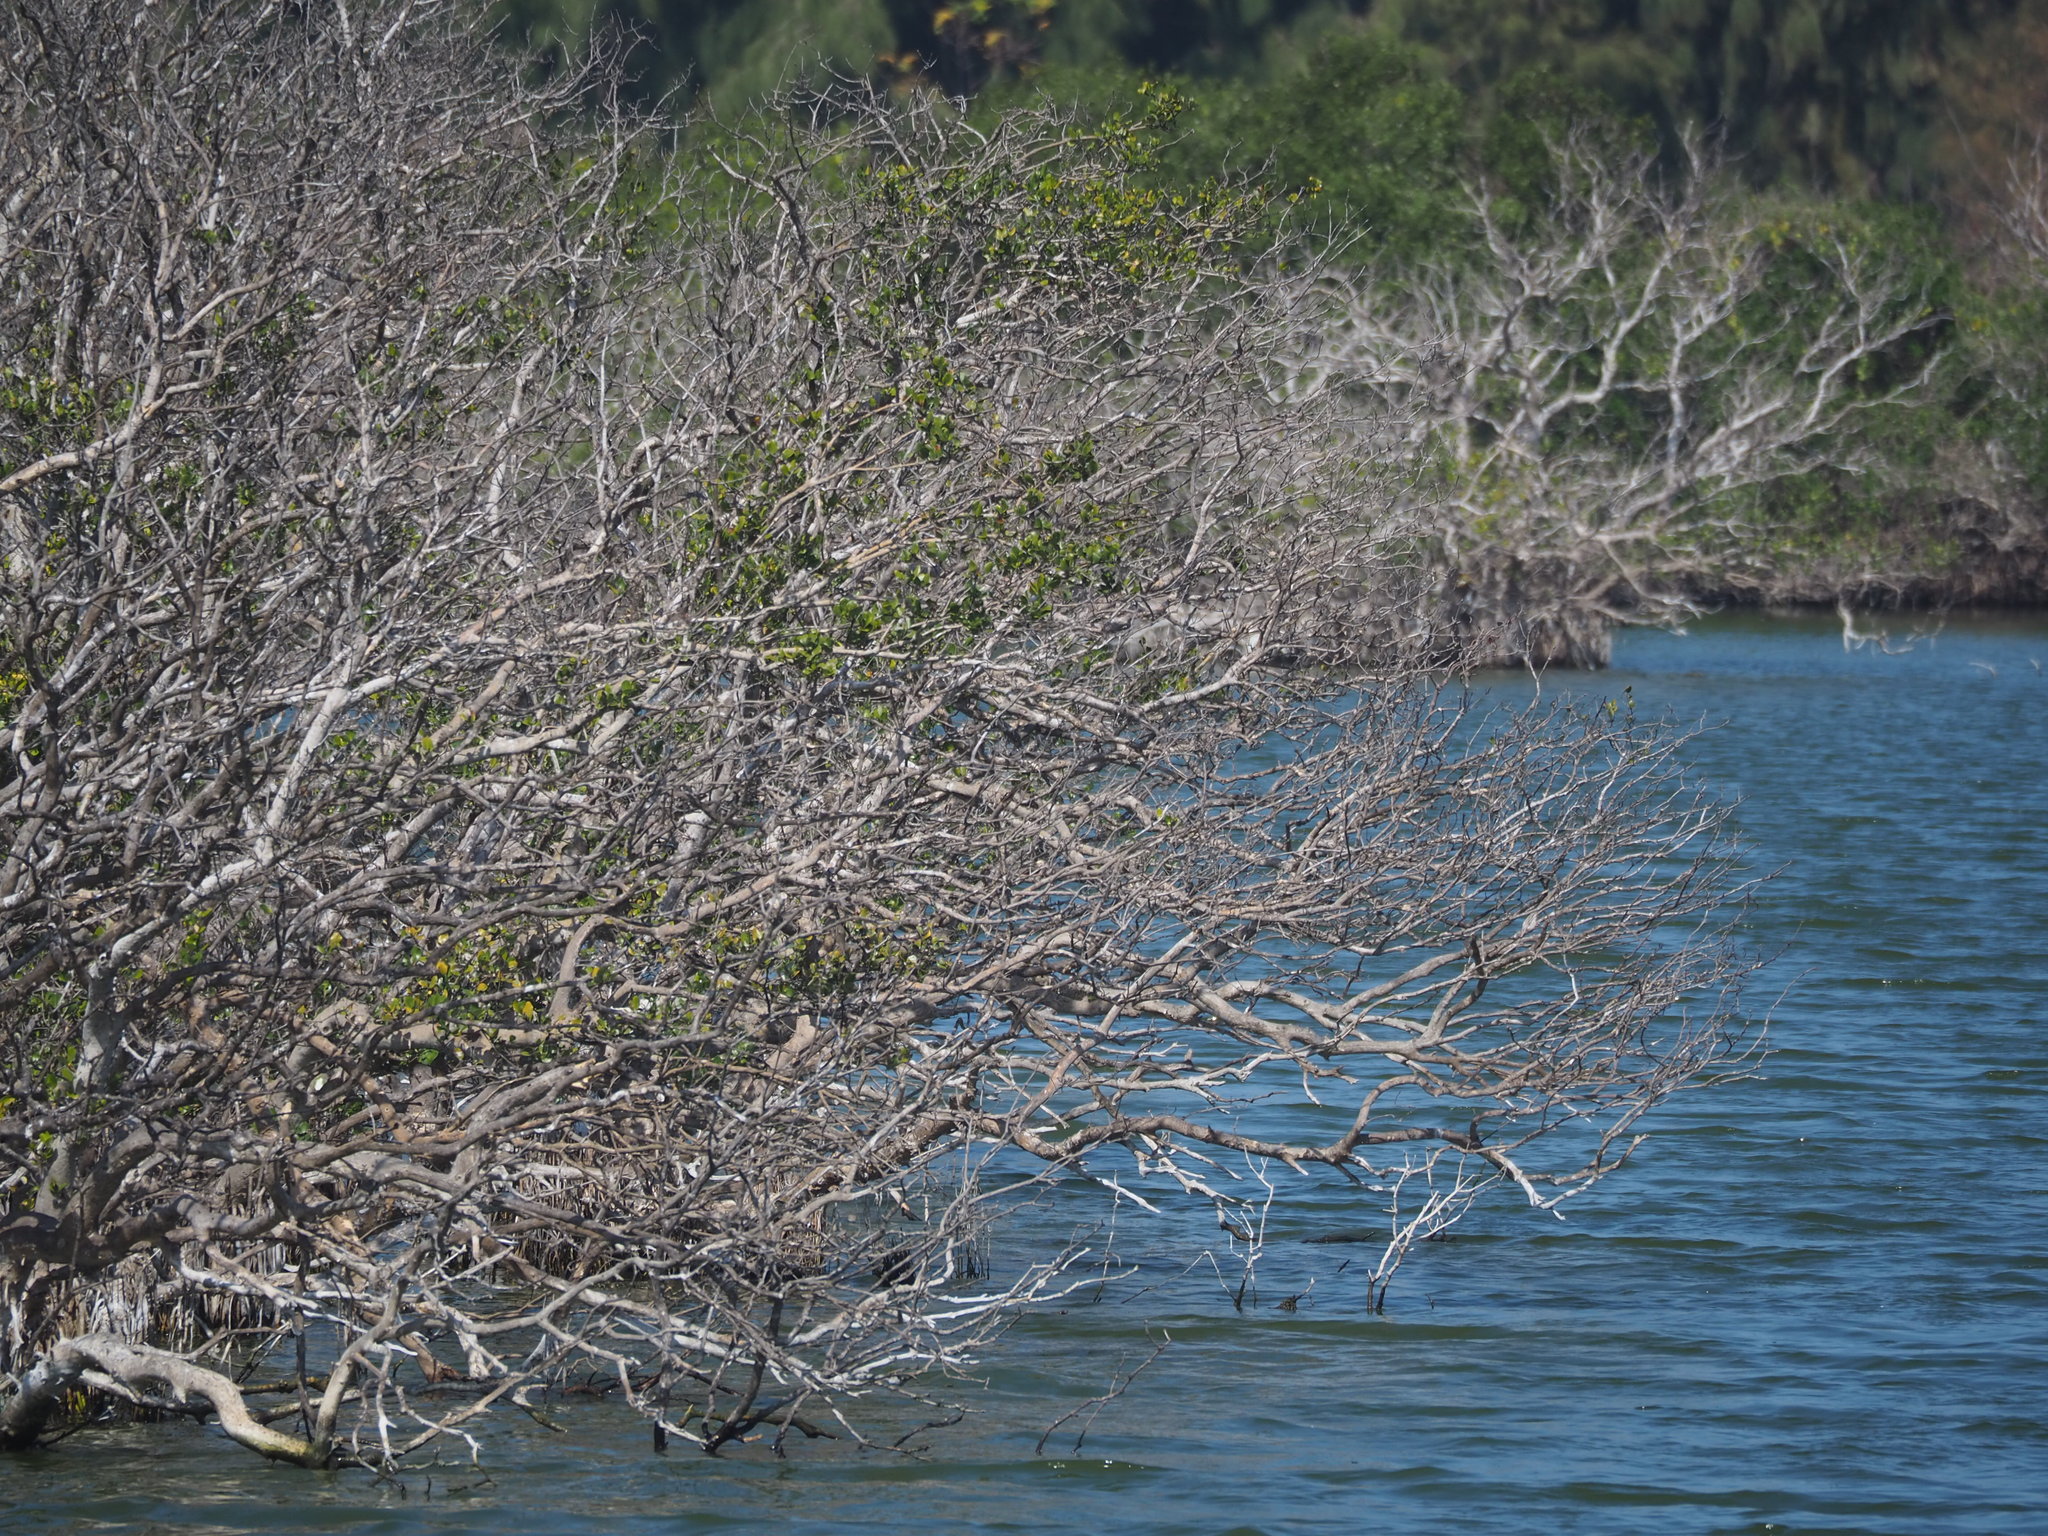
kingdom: Plantae
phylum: Tracheophyta
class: Magnoliopsida
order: Lamiales
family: Acanthaceae
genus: Avicennia
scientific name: Avicennia marina
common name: Gray mangrove
